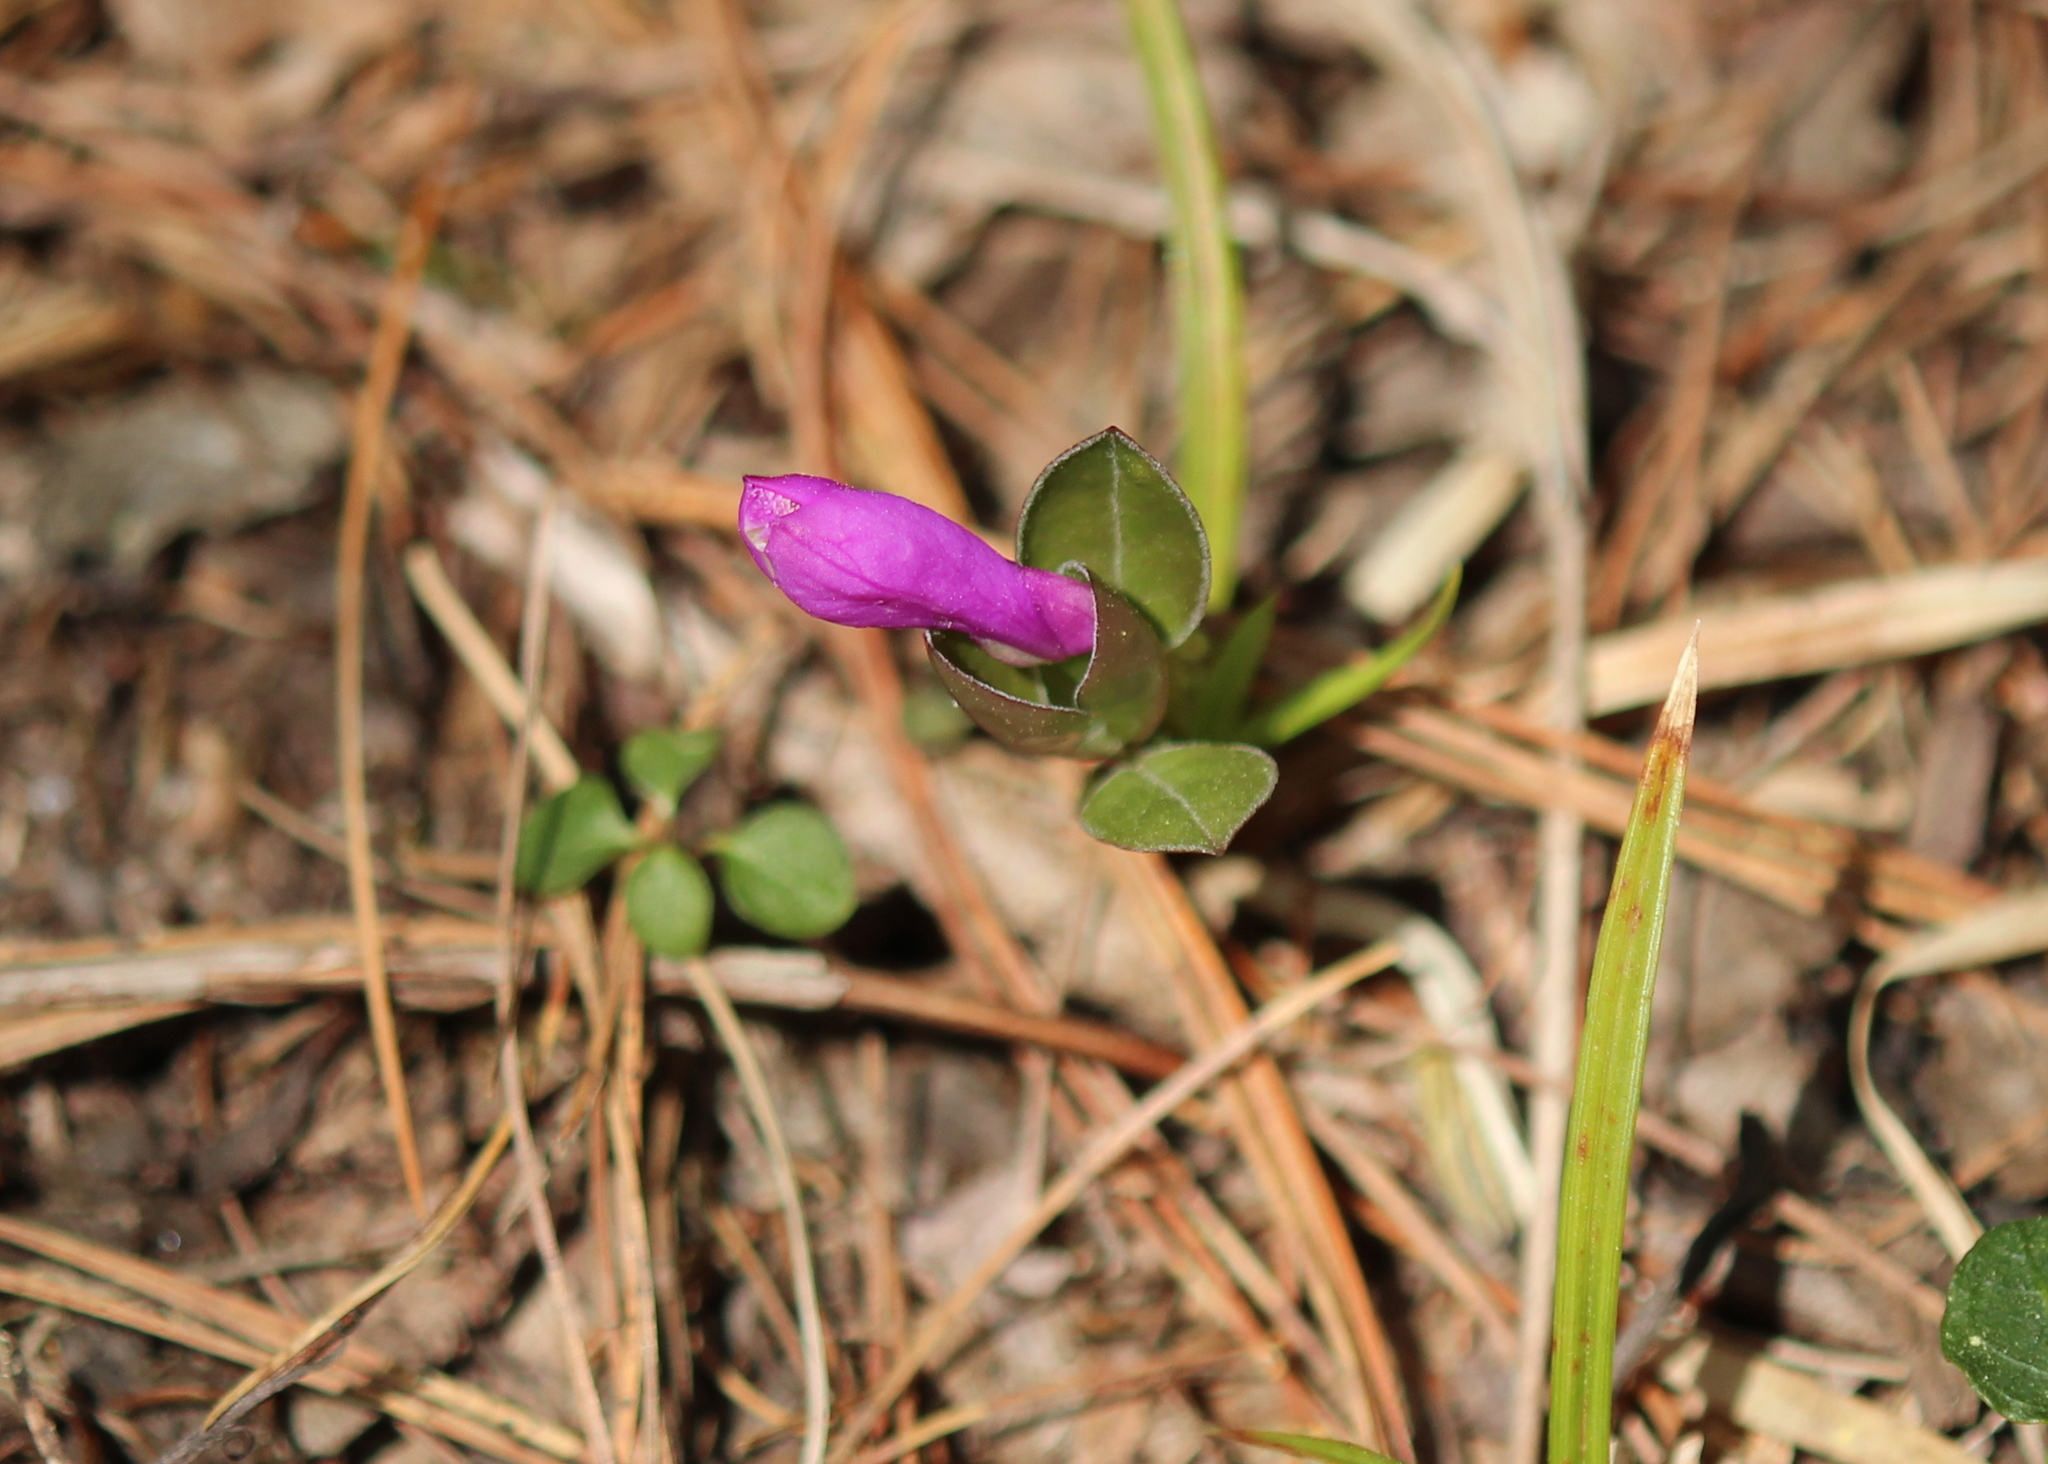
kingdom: Plantae
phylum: Tracheophyta
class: Magnoliopsida
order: Fabales
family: Polygalaceae
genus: Polygaloides
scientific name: Polygaloides paucifolia
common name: Bird-on-the-wing
